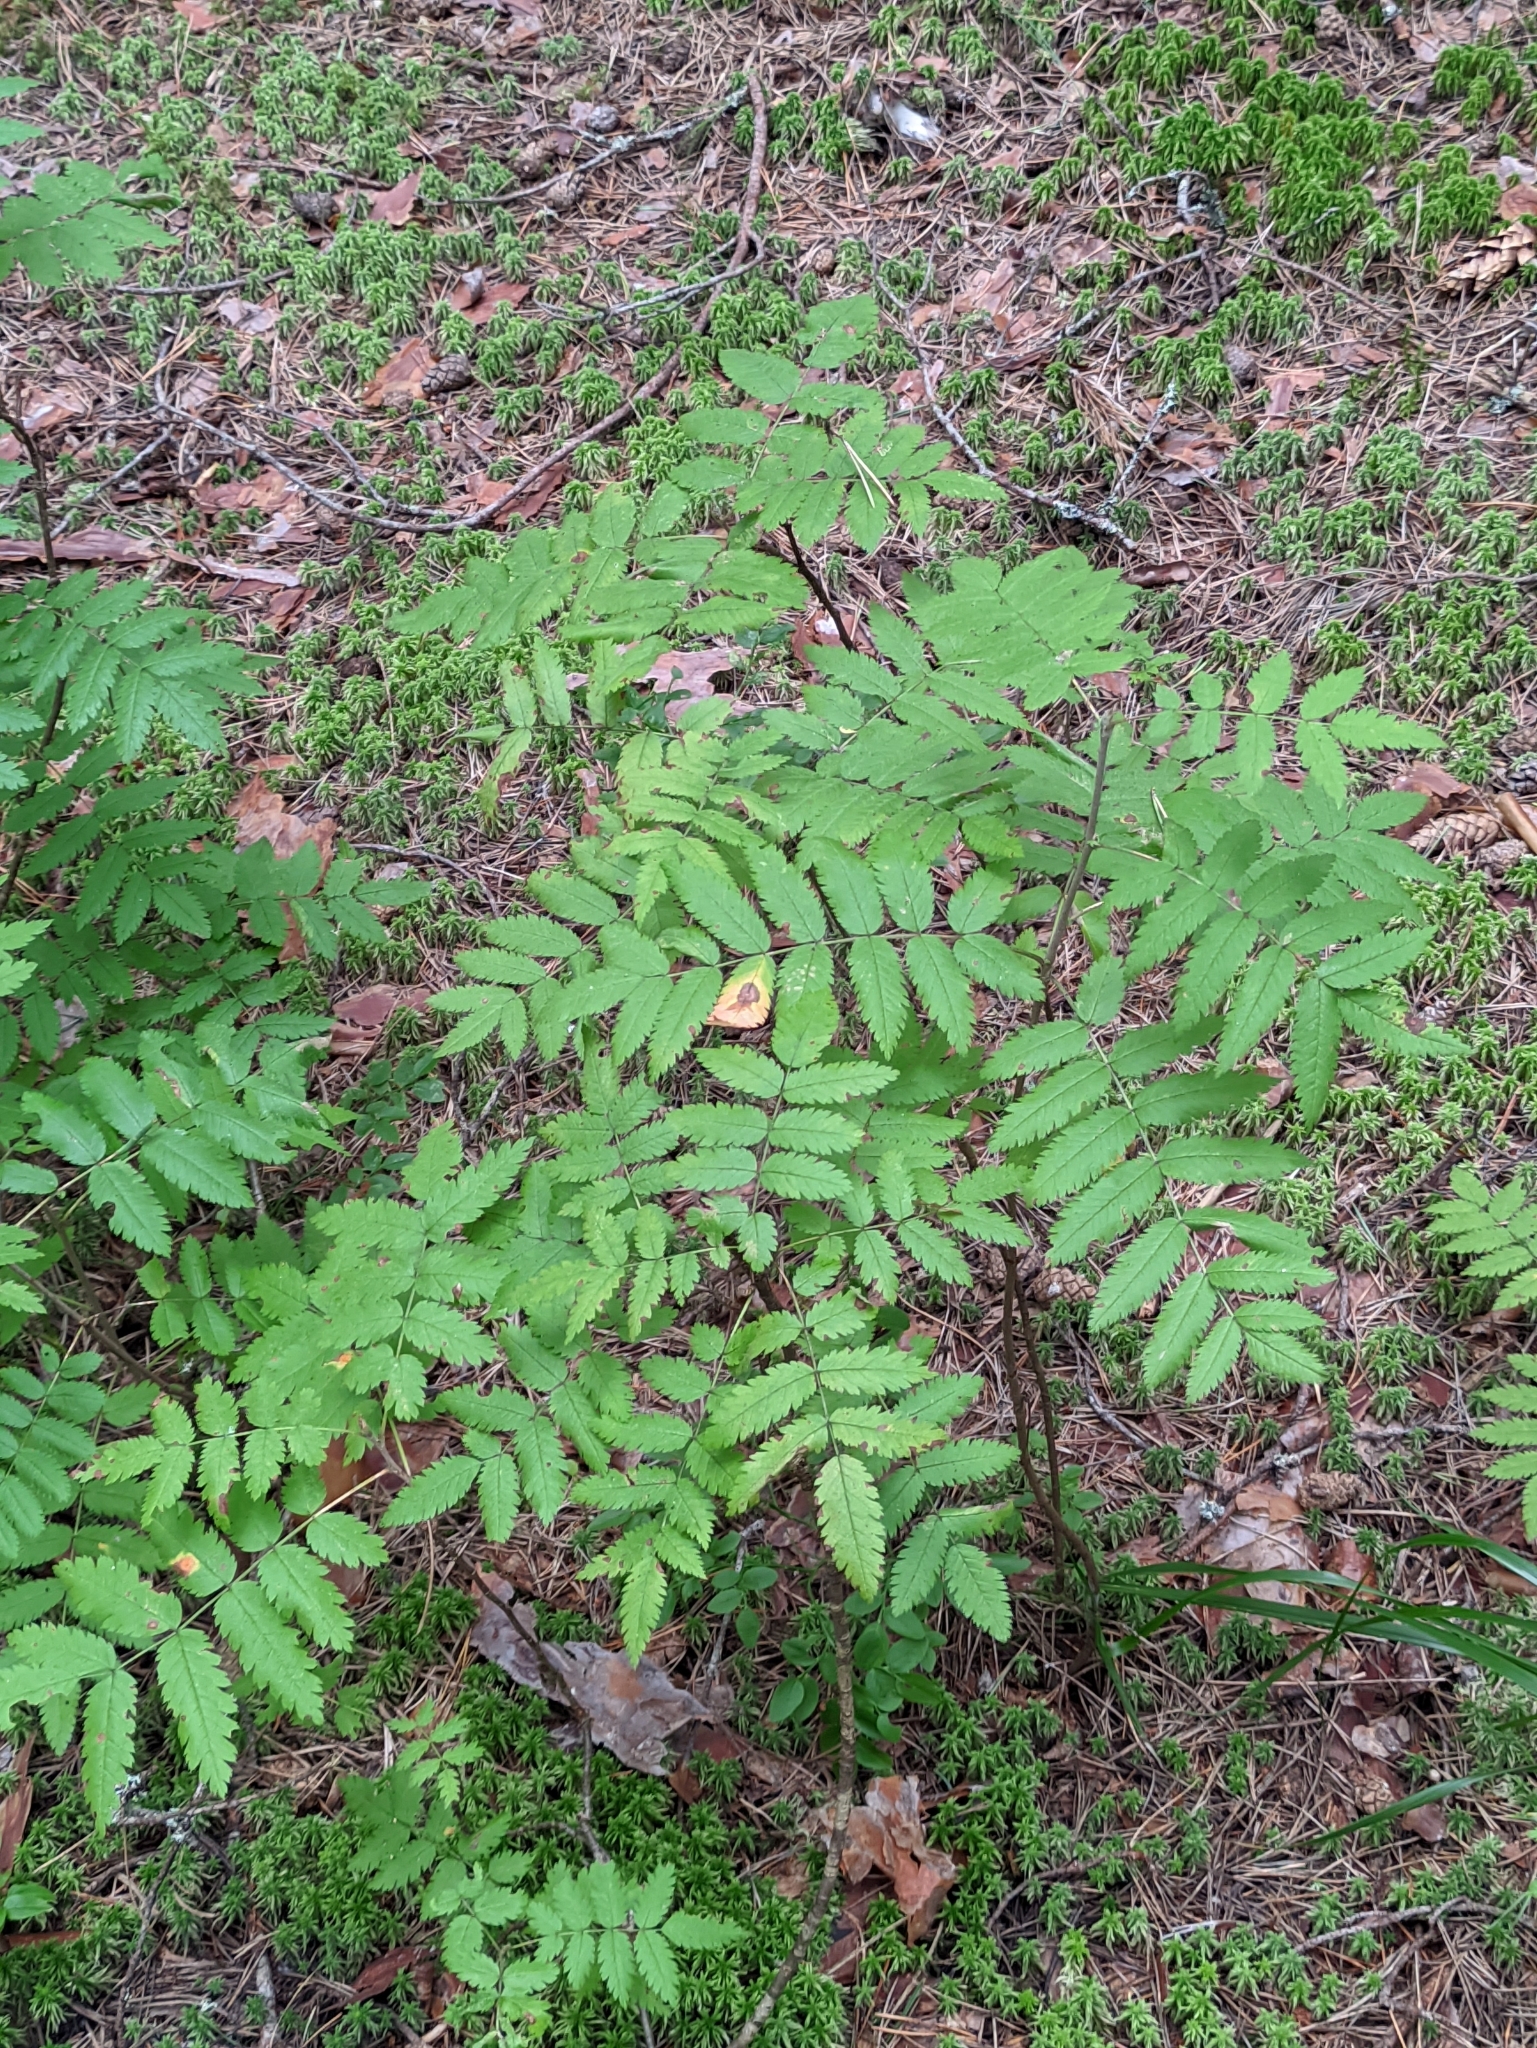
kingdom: Plantae
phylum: Tracheophyta
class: Magnoliopsida
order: Rosales
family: Rosaceae
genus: Sorbus
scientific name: Sorbus aucuparia
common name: Rowan
